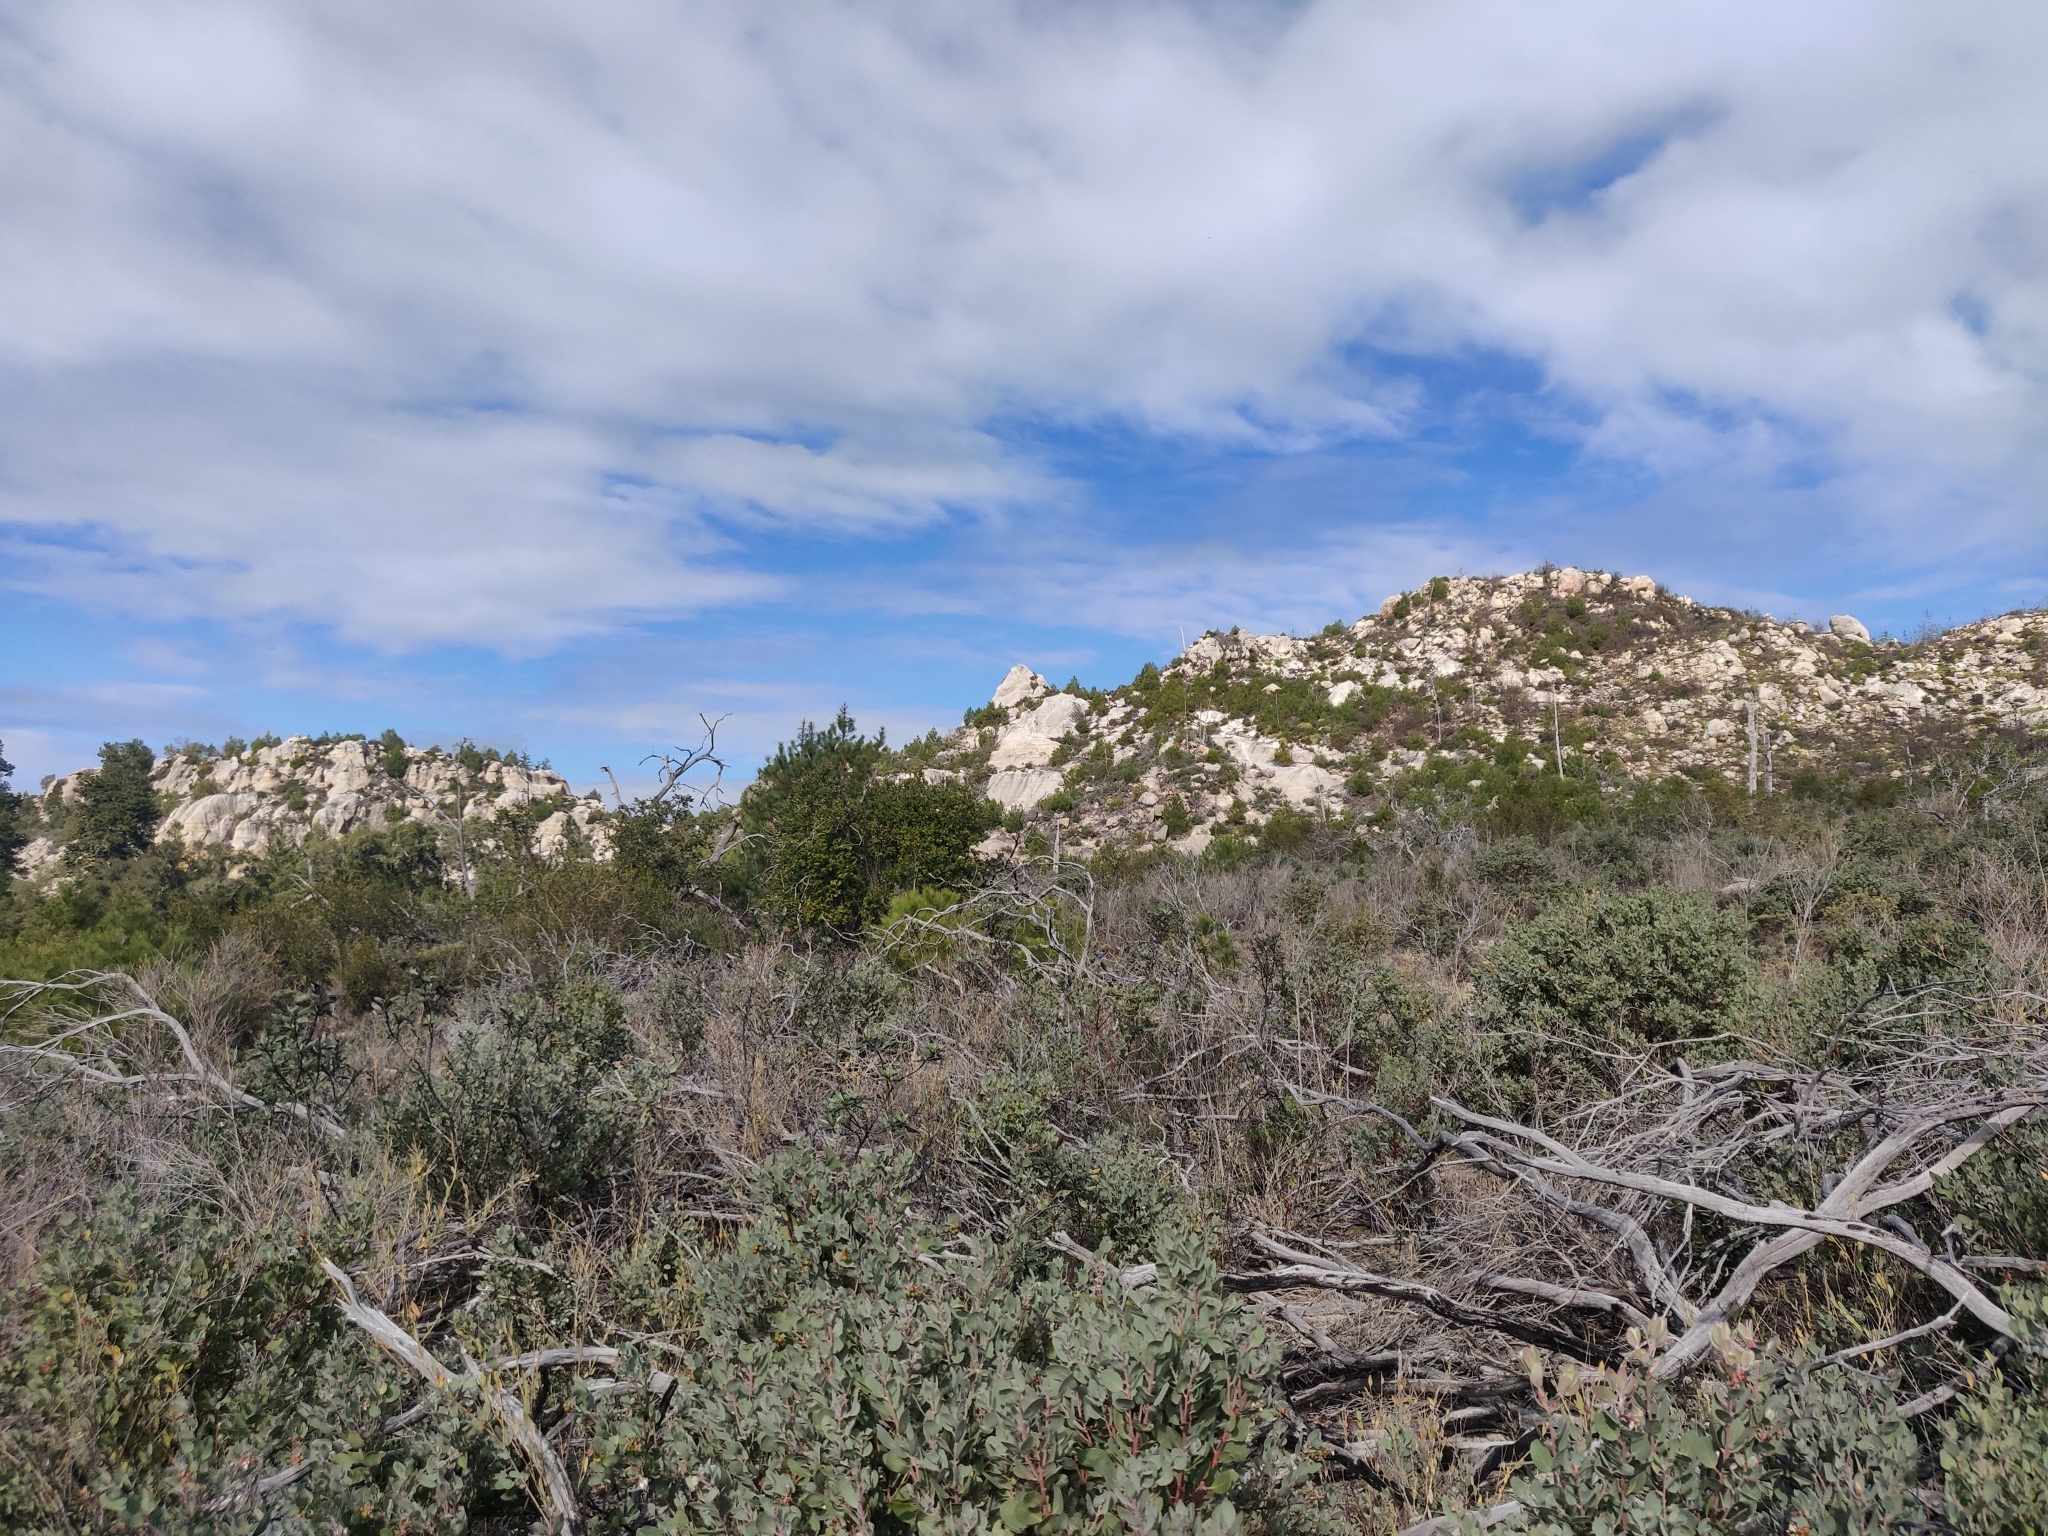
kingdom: Plantae
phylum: Tracheophyta
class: Magnoliopsida
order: Ericales
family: Ericaceae
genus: Arctostaphylos
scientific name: Arctostaphylos silvicola
